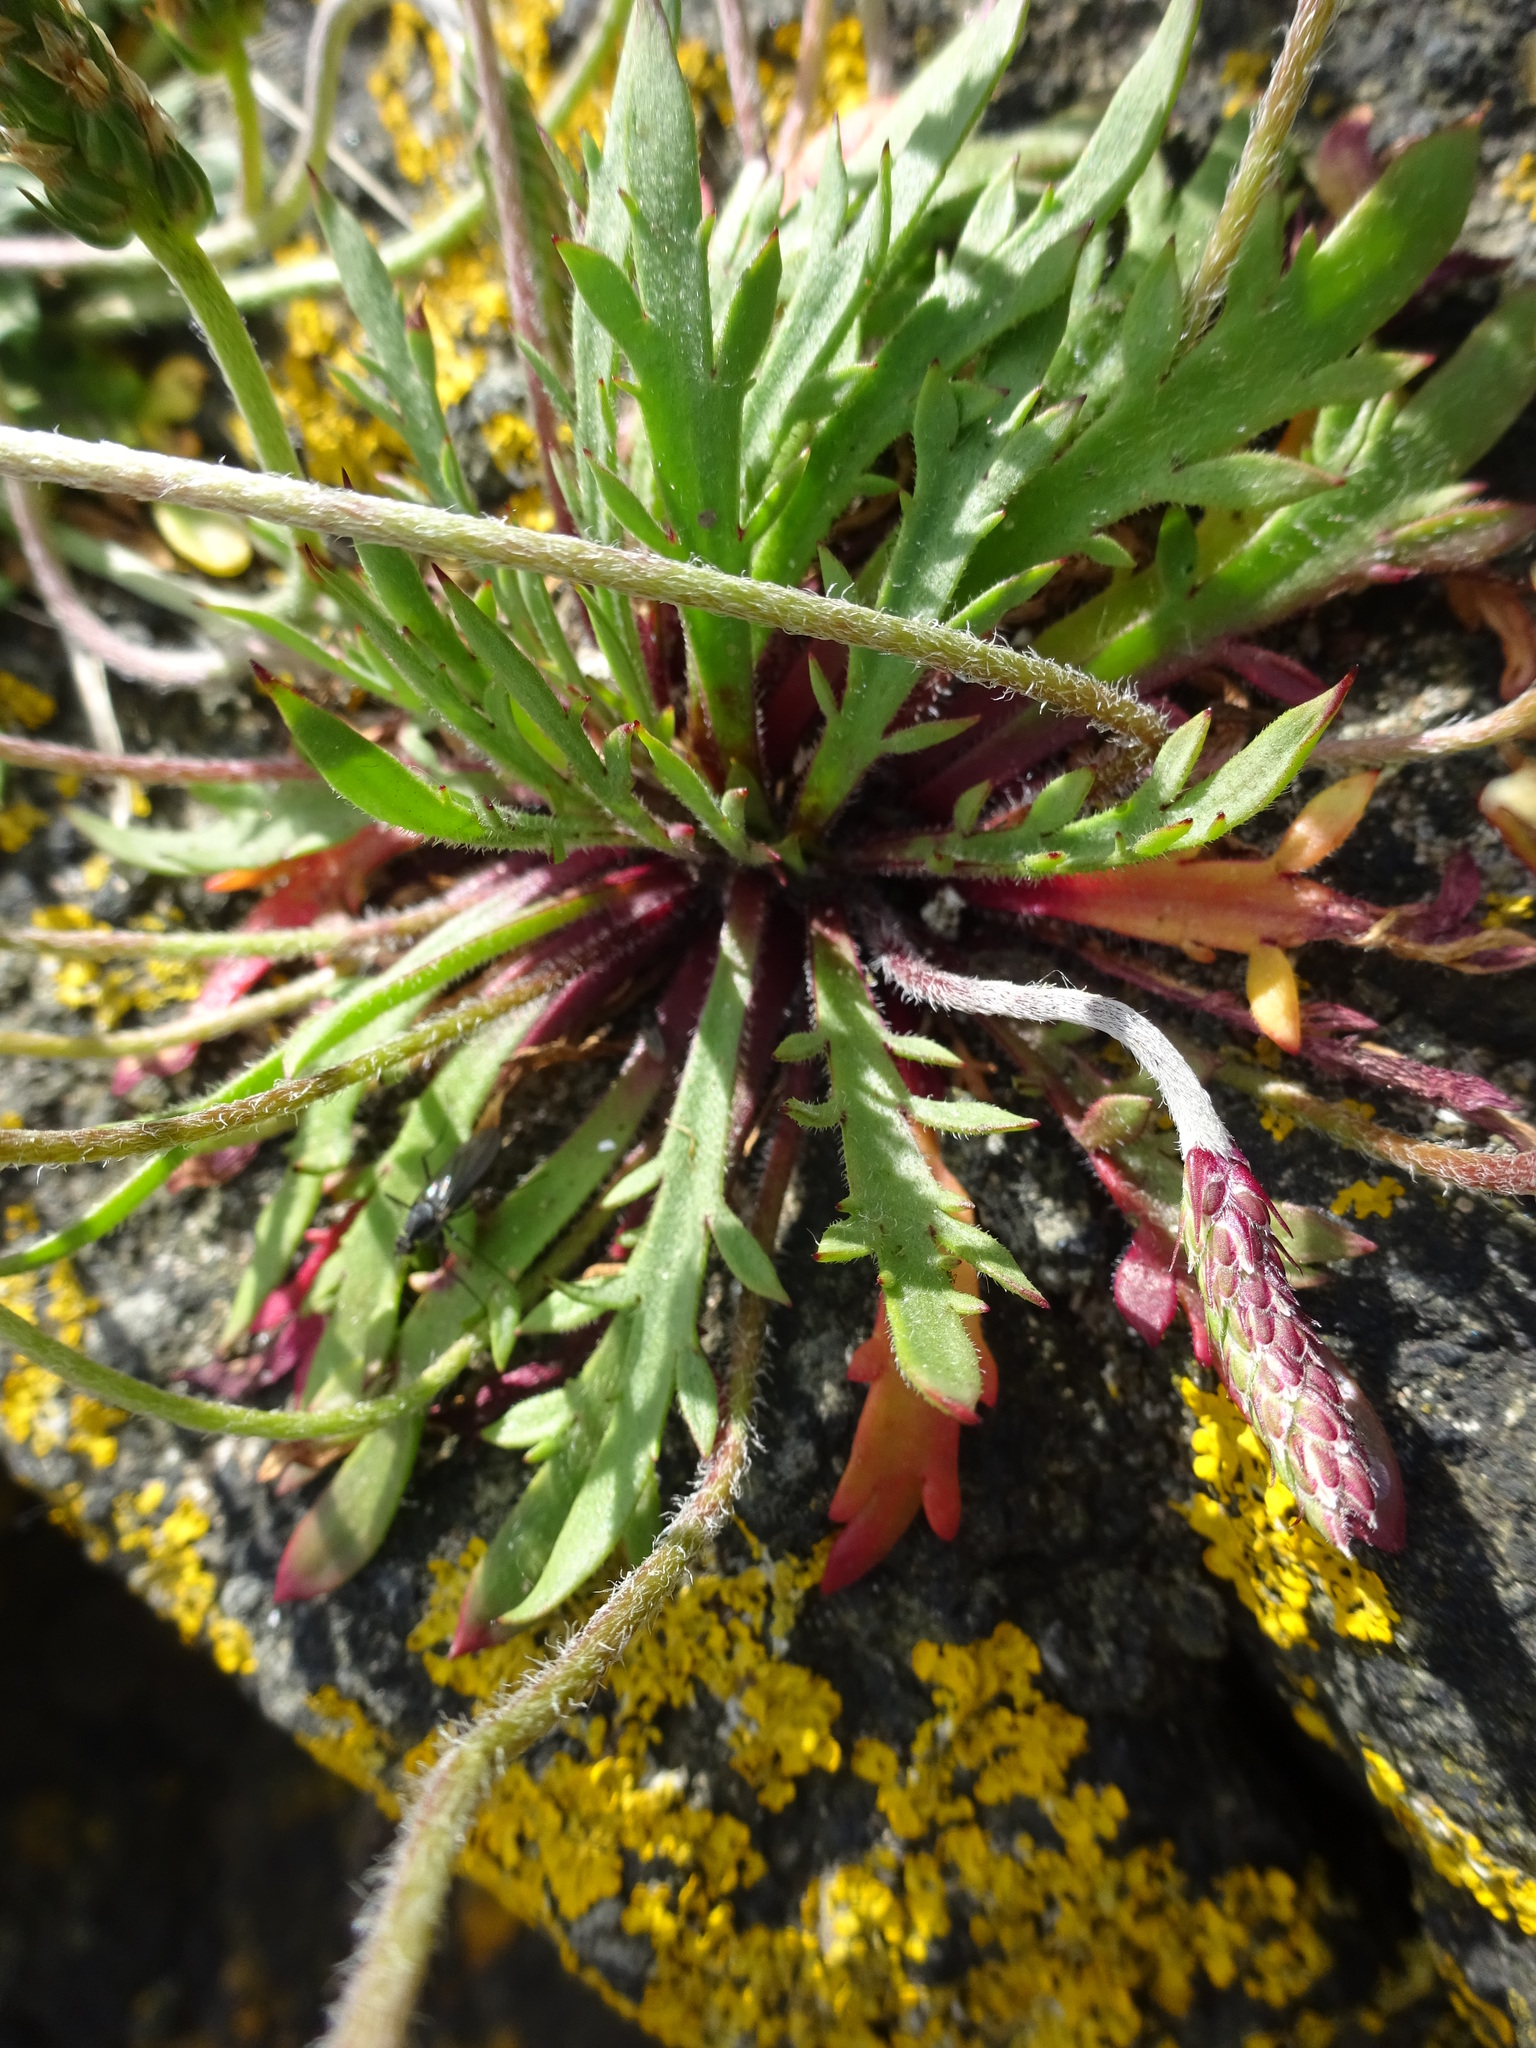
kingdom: Plantae
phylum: Tracheophyta
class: Magnoliopsida
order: Lamiales
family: Plantaginaceae
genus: Plantago
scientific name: Plantago coronopus
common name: Buck's-horn plantain
